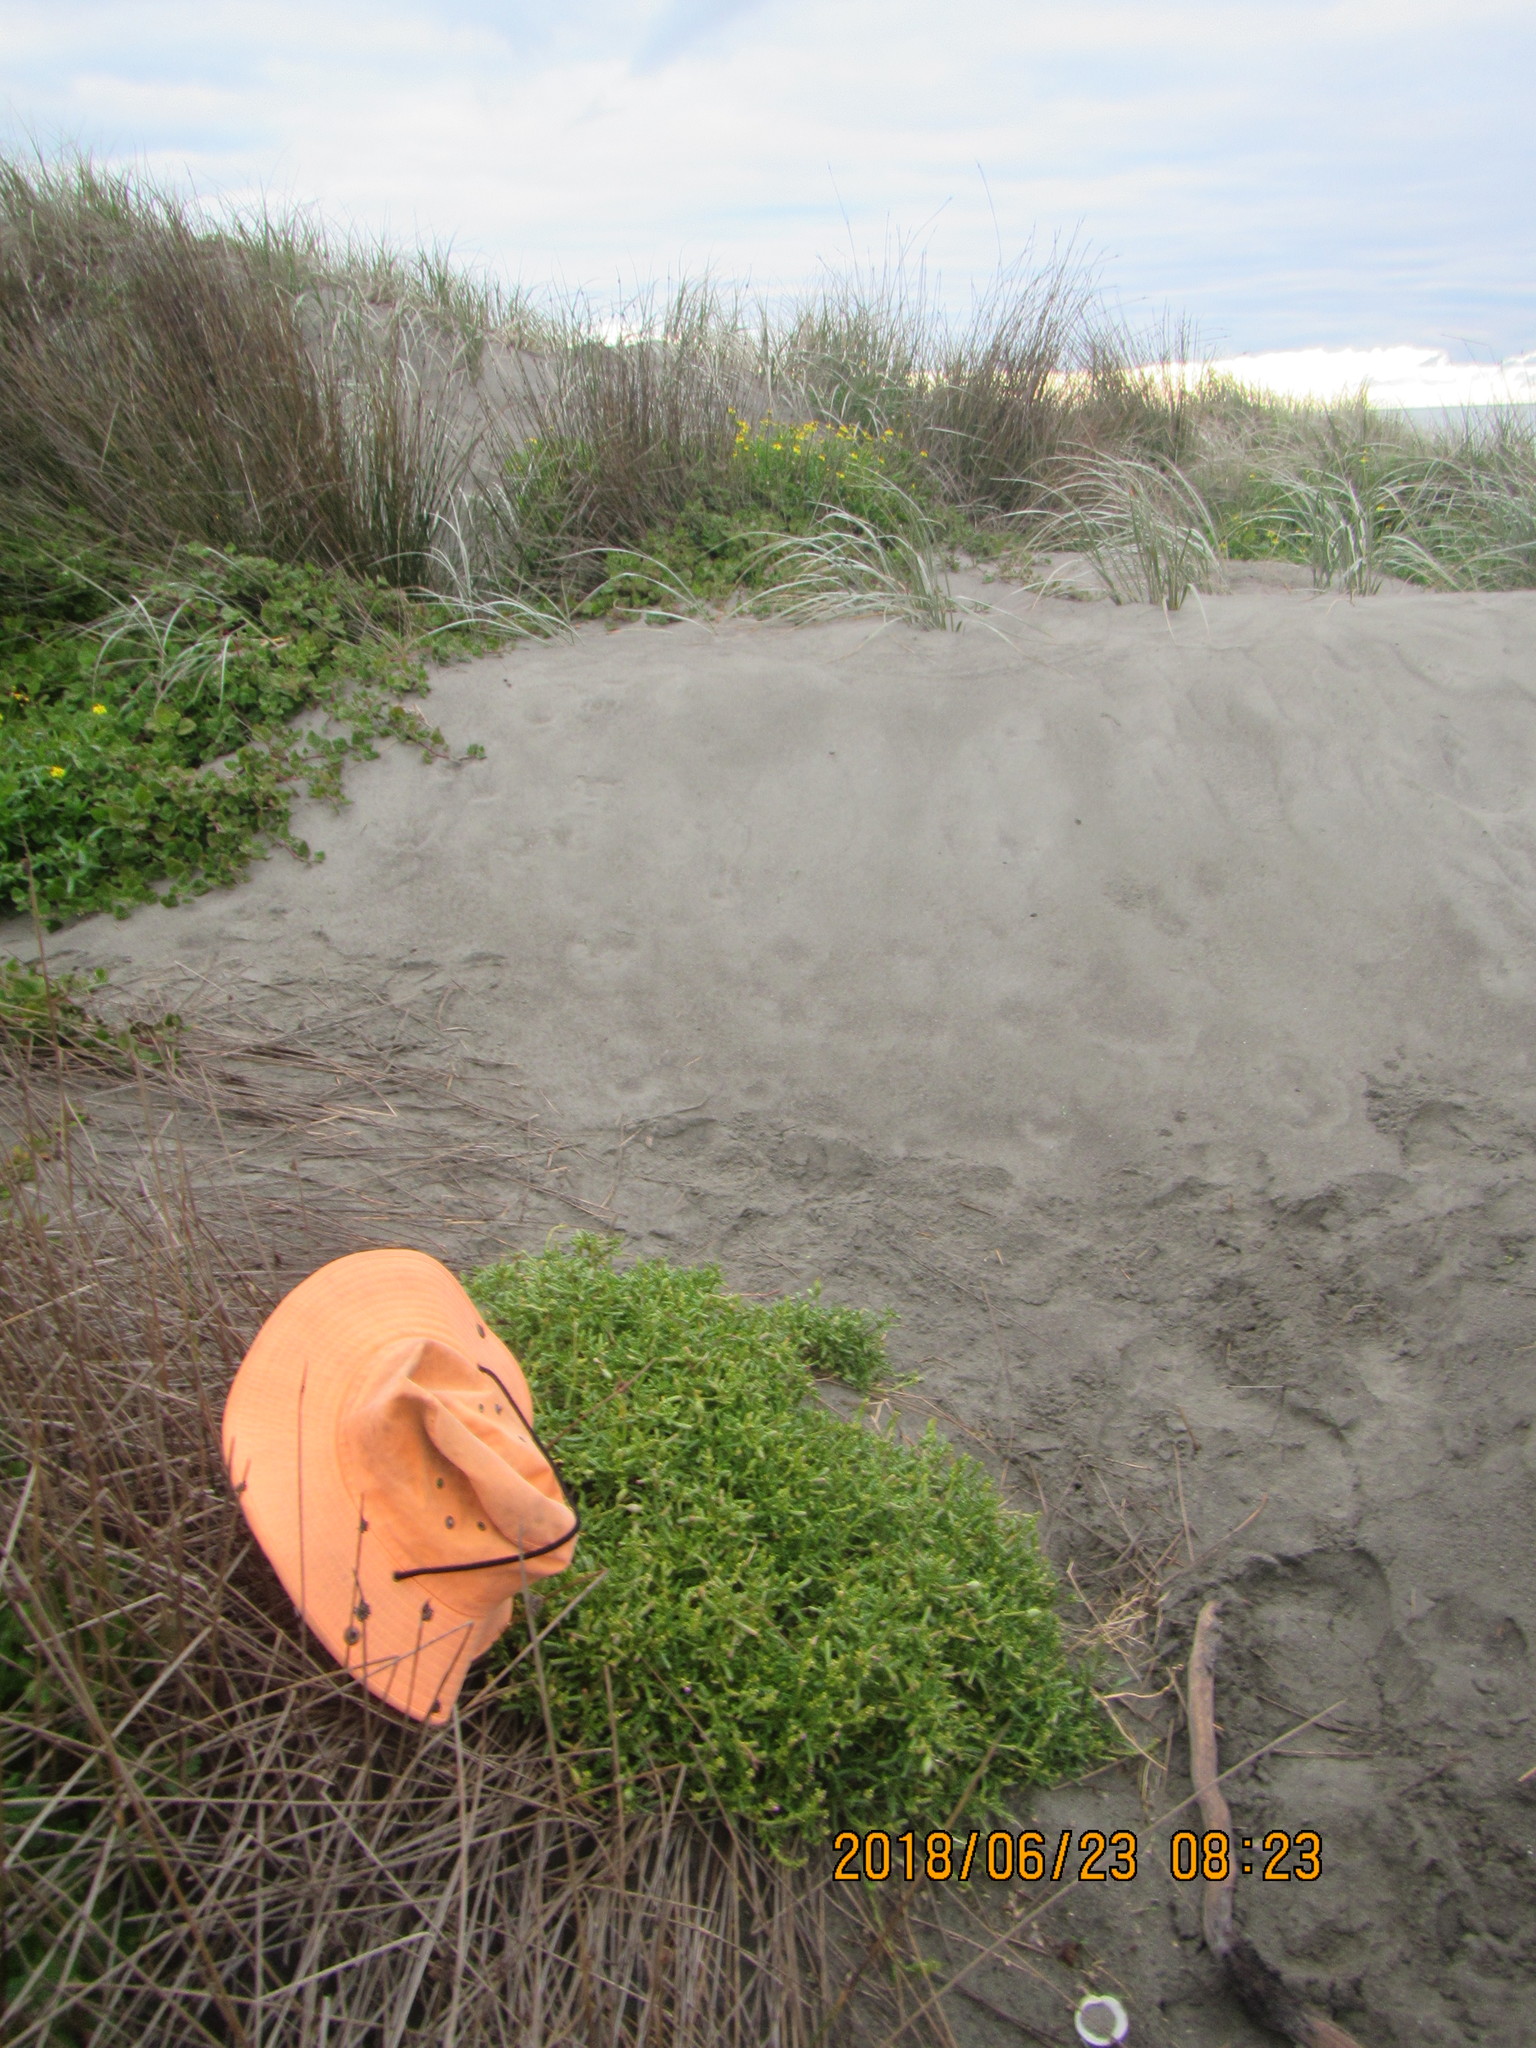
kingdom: Plantae
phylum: Tracheophyta
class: Magnoliopsida
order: Brassicales
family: Brassicaceae
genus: Cakile
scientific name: Cakile edentula
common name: American sea rocket
